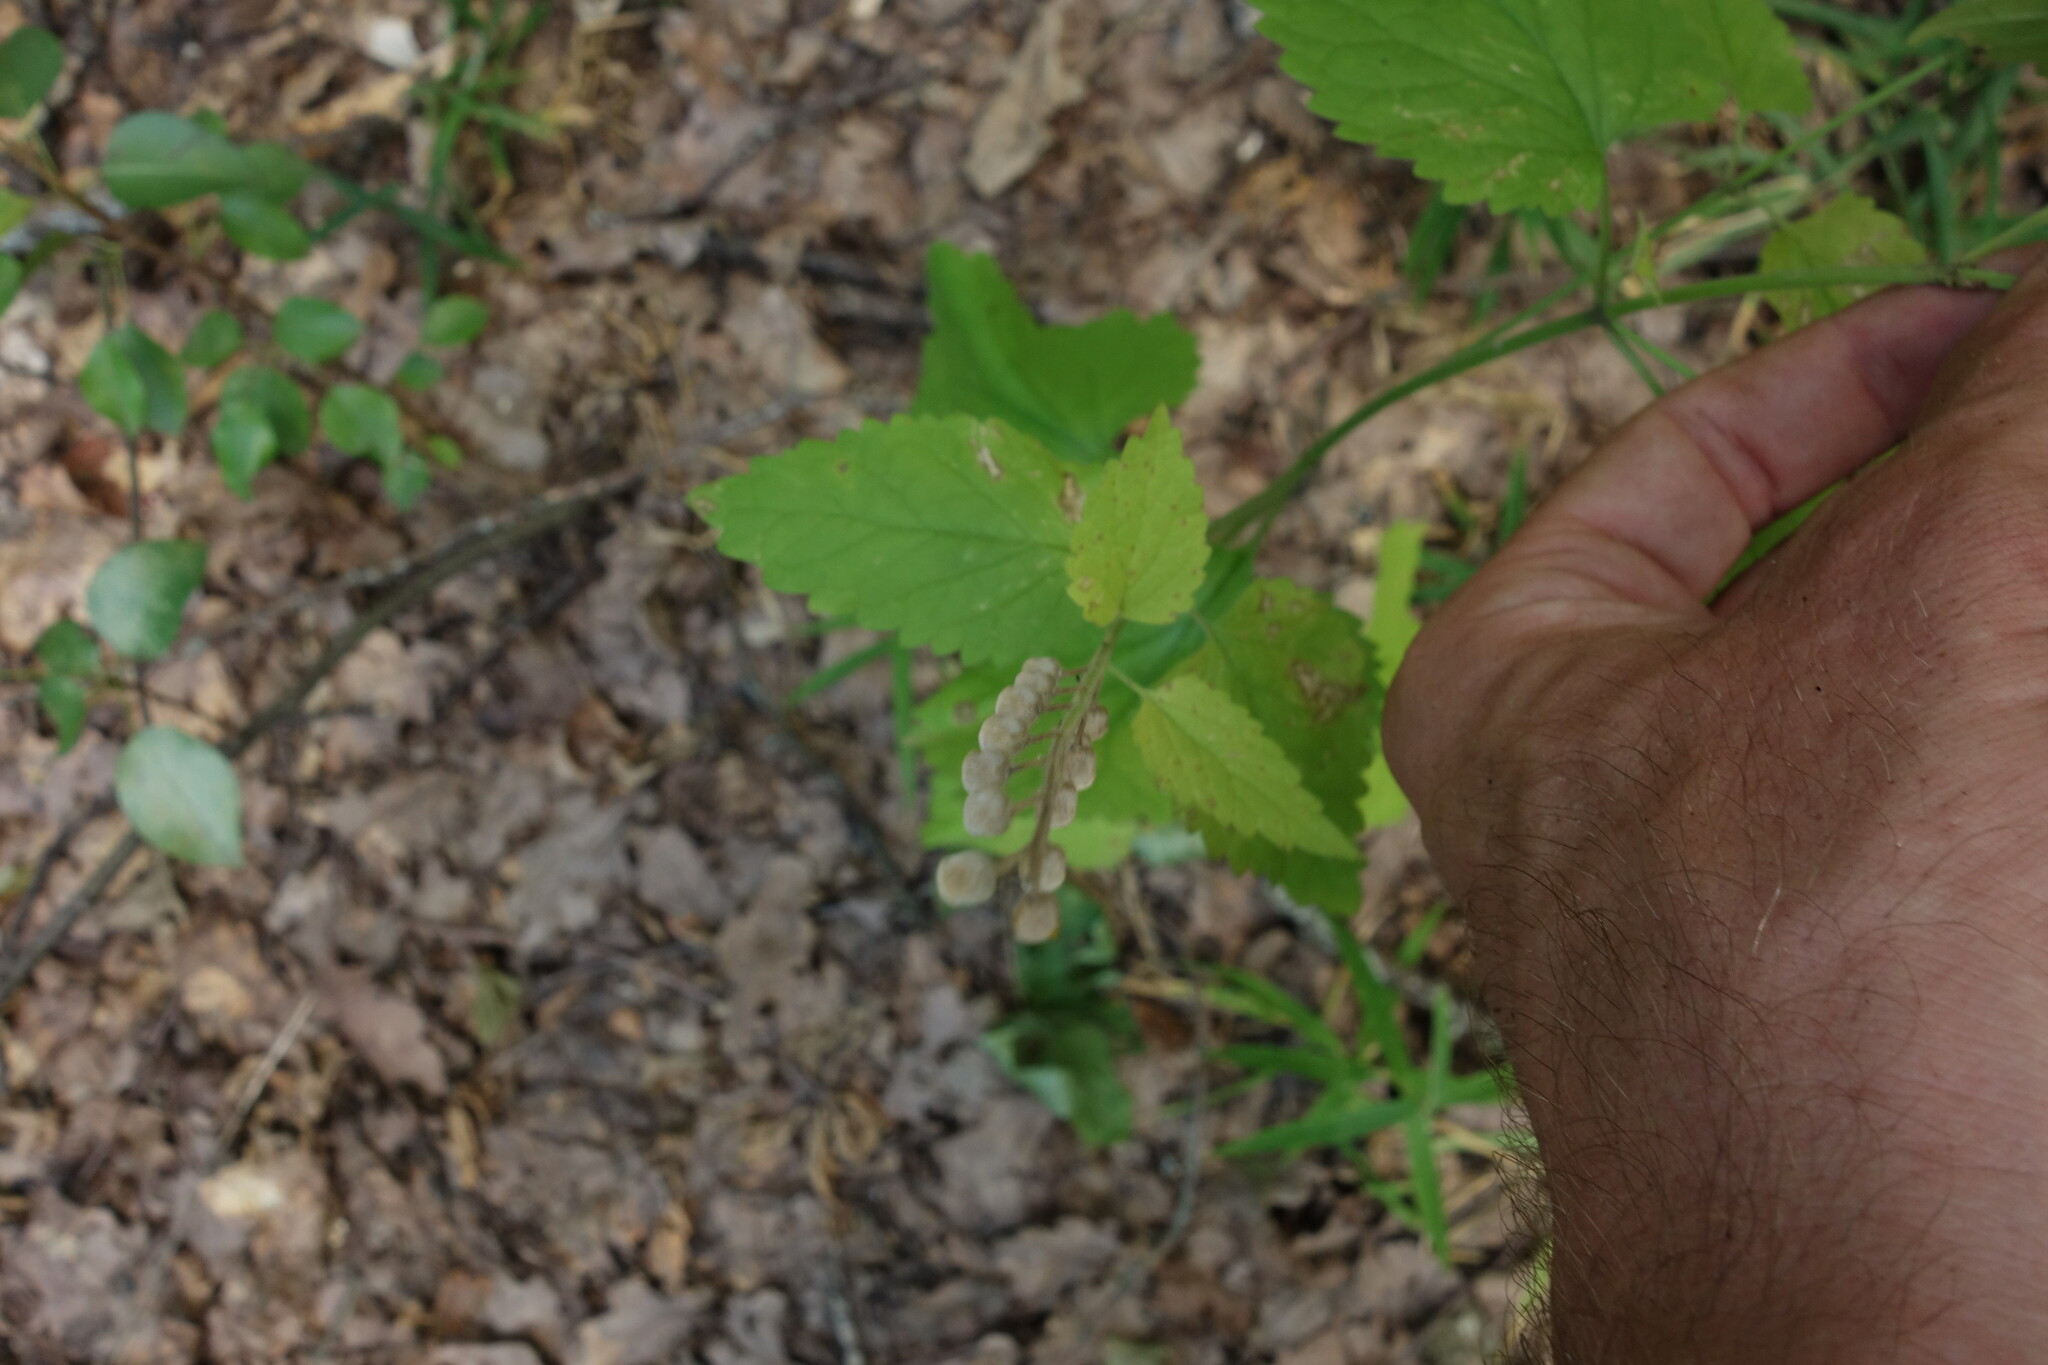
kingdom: Plantae
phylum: Tracheophyta
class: Magnoliopsida
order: Lamiales
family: Lamiaceae
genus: Scutellaria
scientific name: Scutellaria altissima
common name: Somerset skullcap
